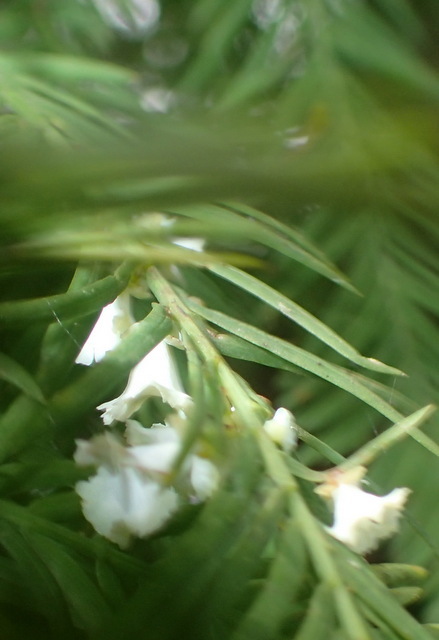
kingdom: Animalia
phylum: Arthropoda
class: Insecta
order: Diptera
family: Cecidomyiidae
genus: Taxodiomyia
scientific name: Taxodiomyia cupressi
